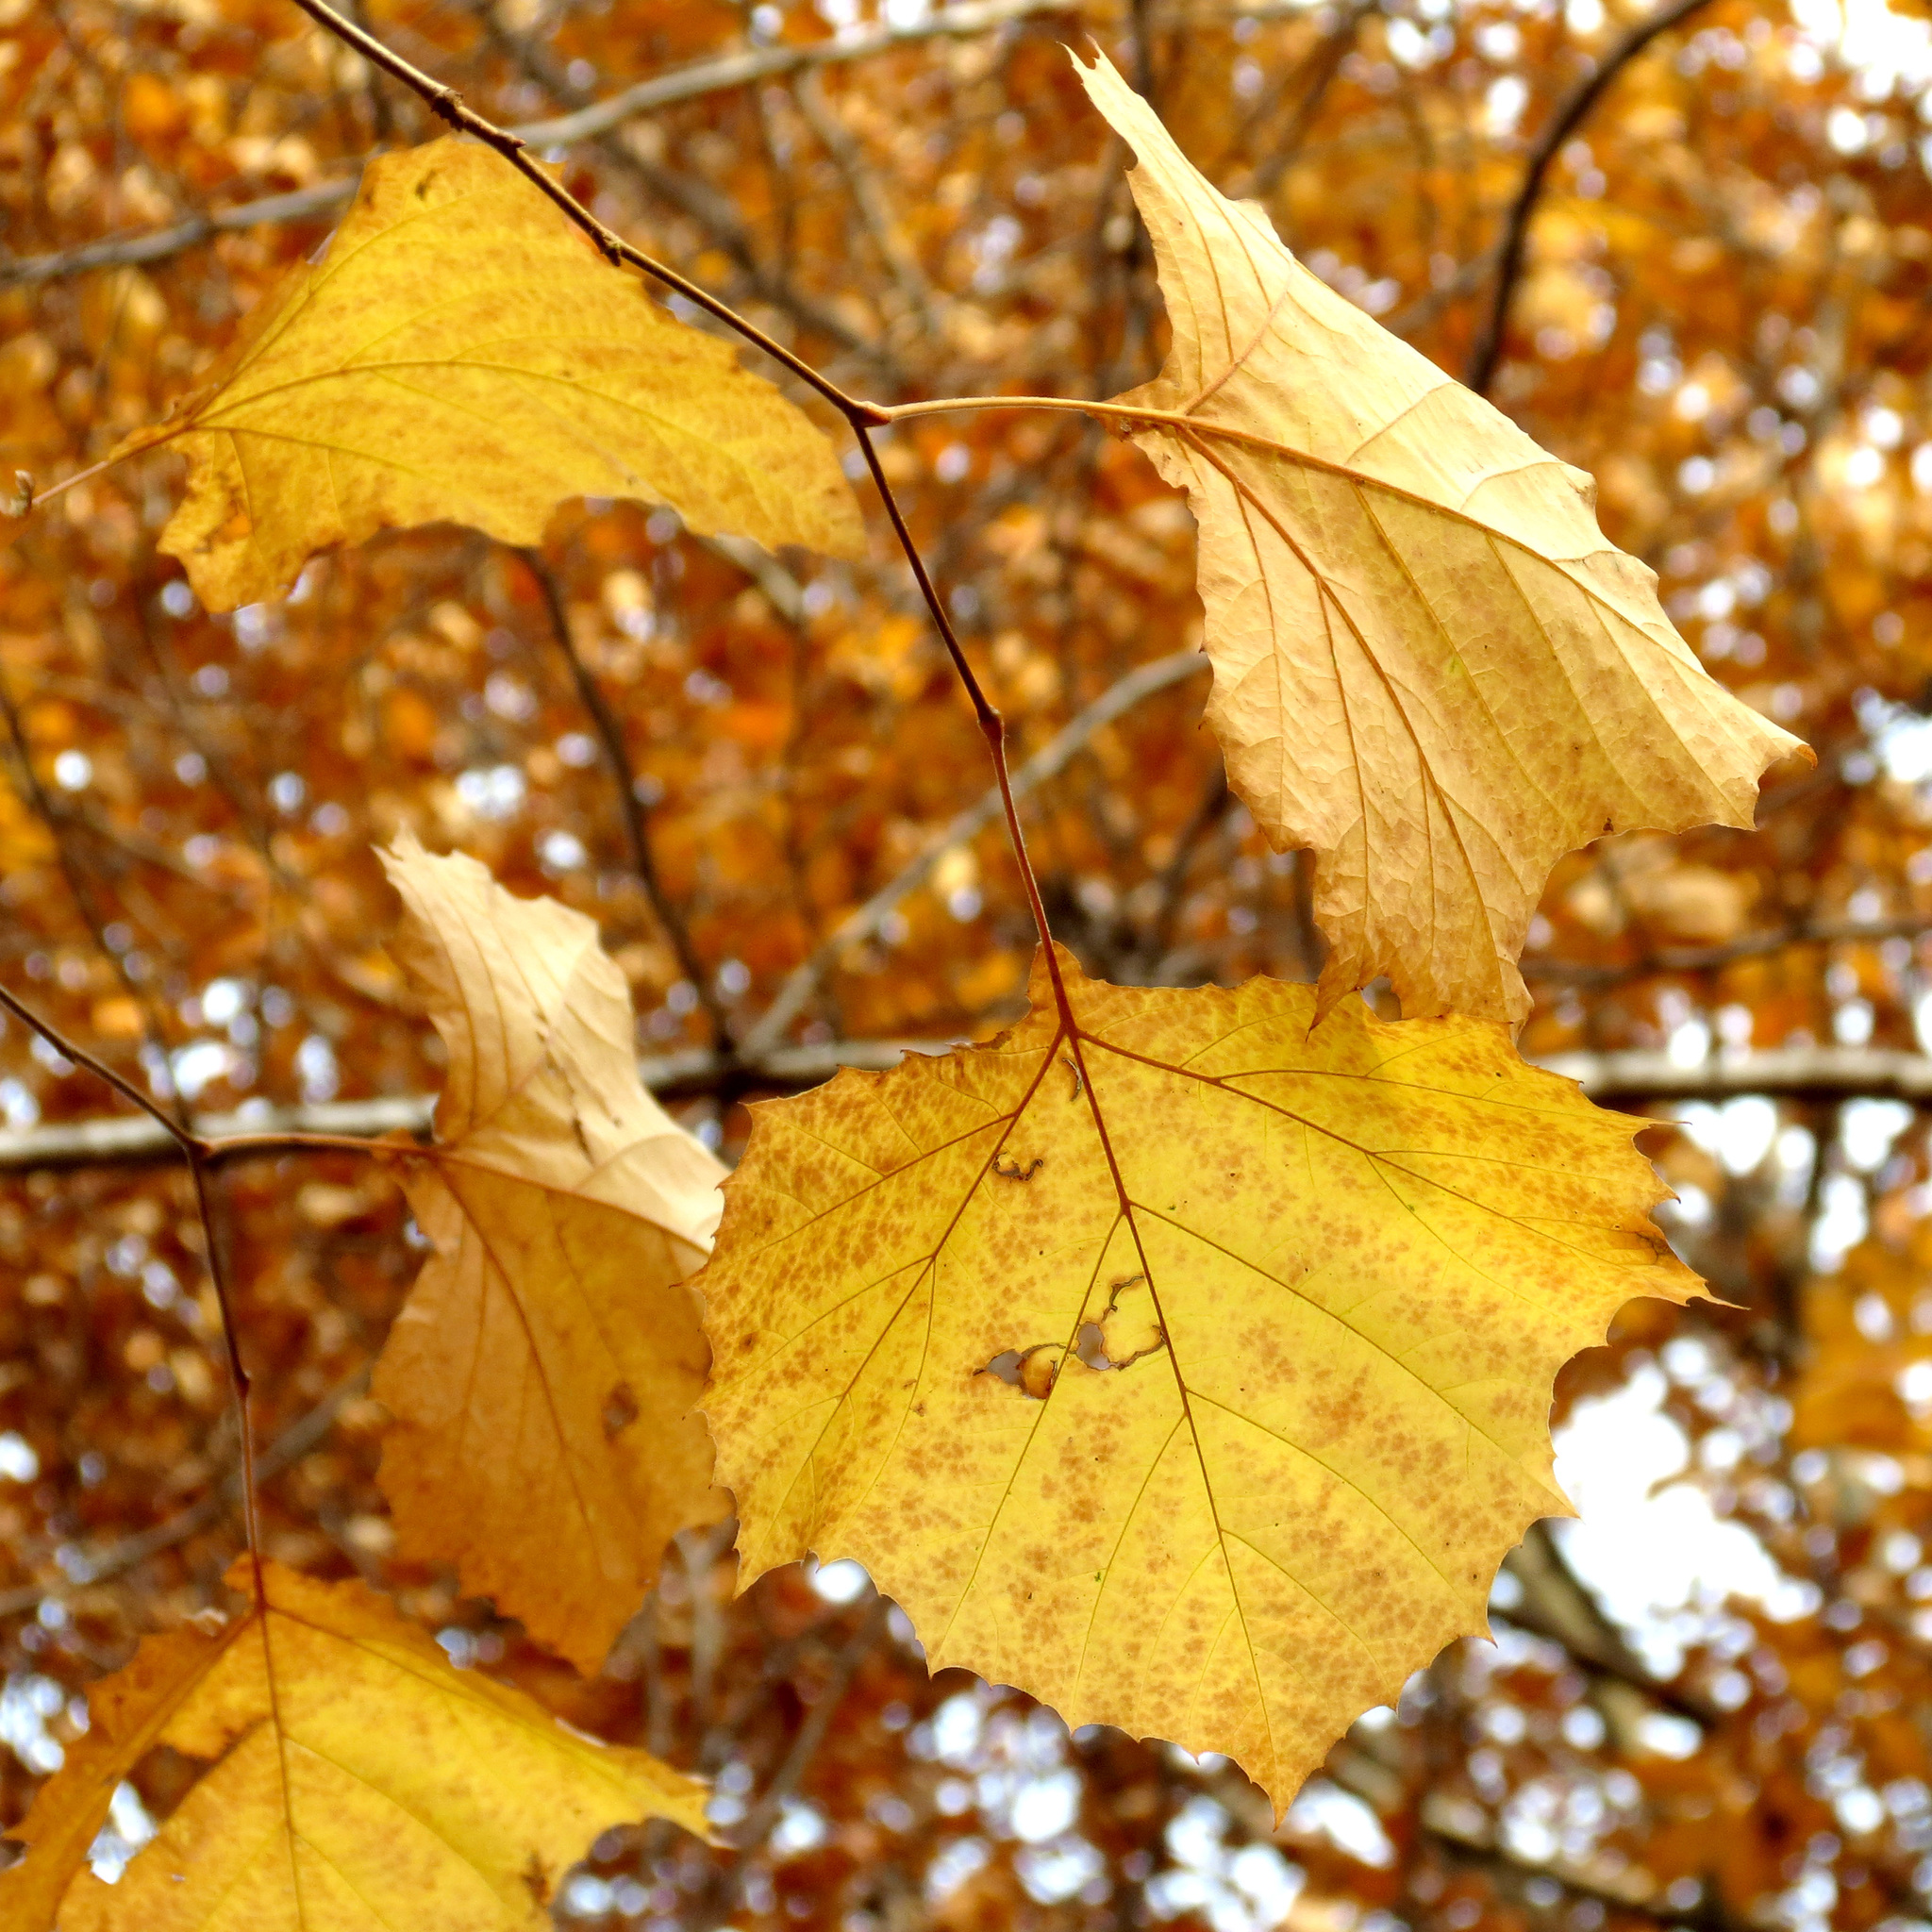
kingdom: Plantae
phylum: Tracheophyta
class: Magnoliopsida
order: Proteales
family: Platanaceae
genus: Platanus
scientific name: Platanus occidentalis
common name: American sycamore
